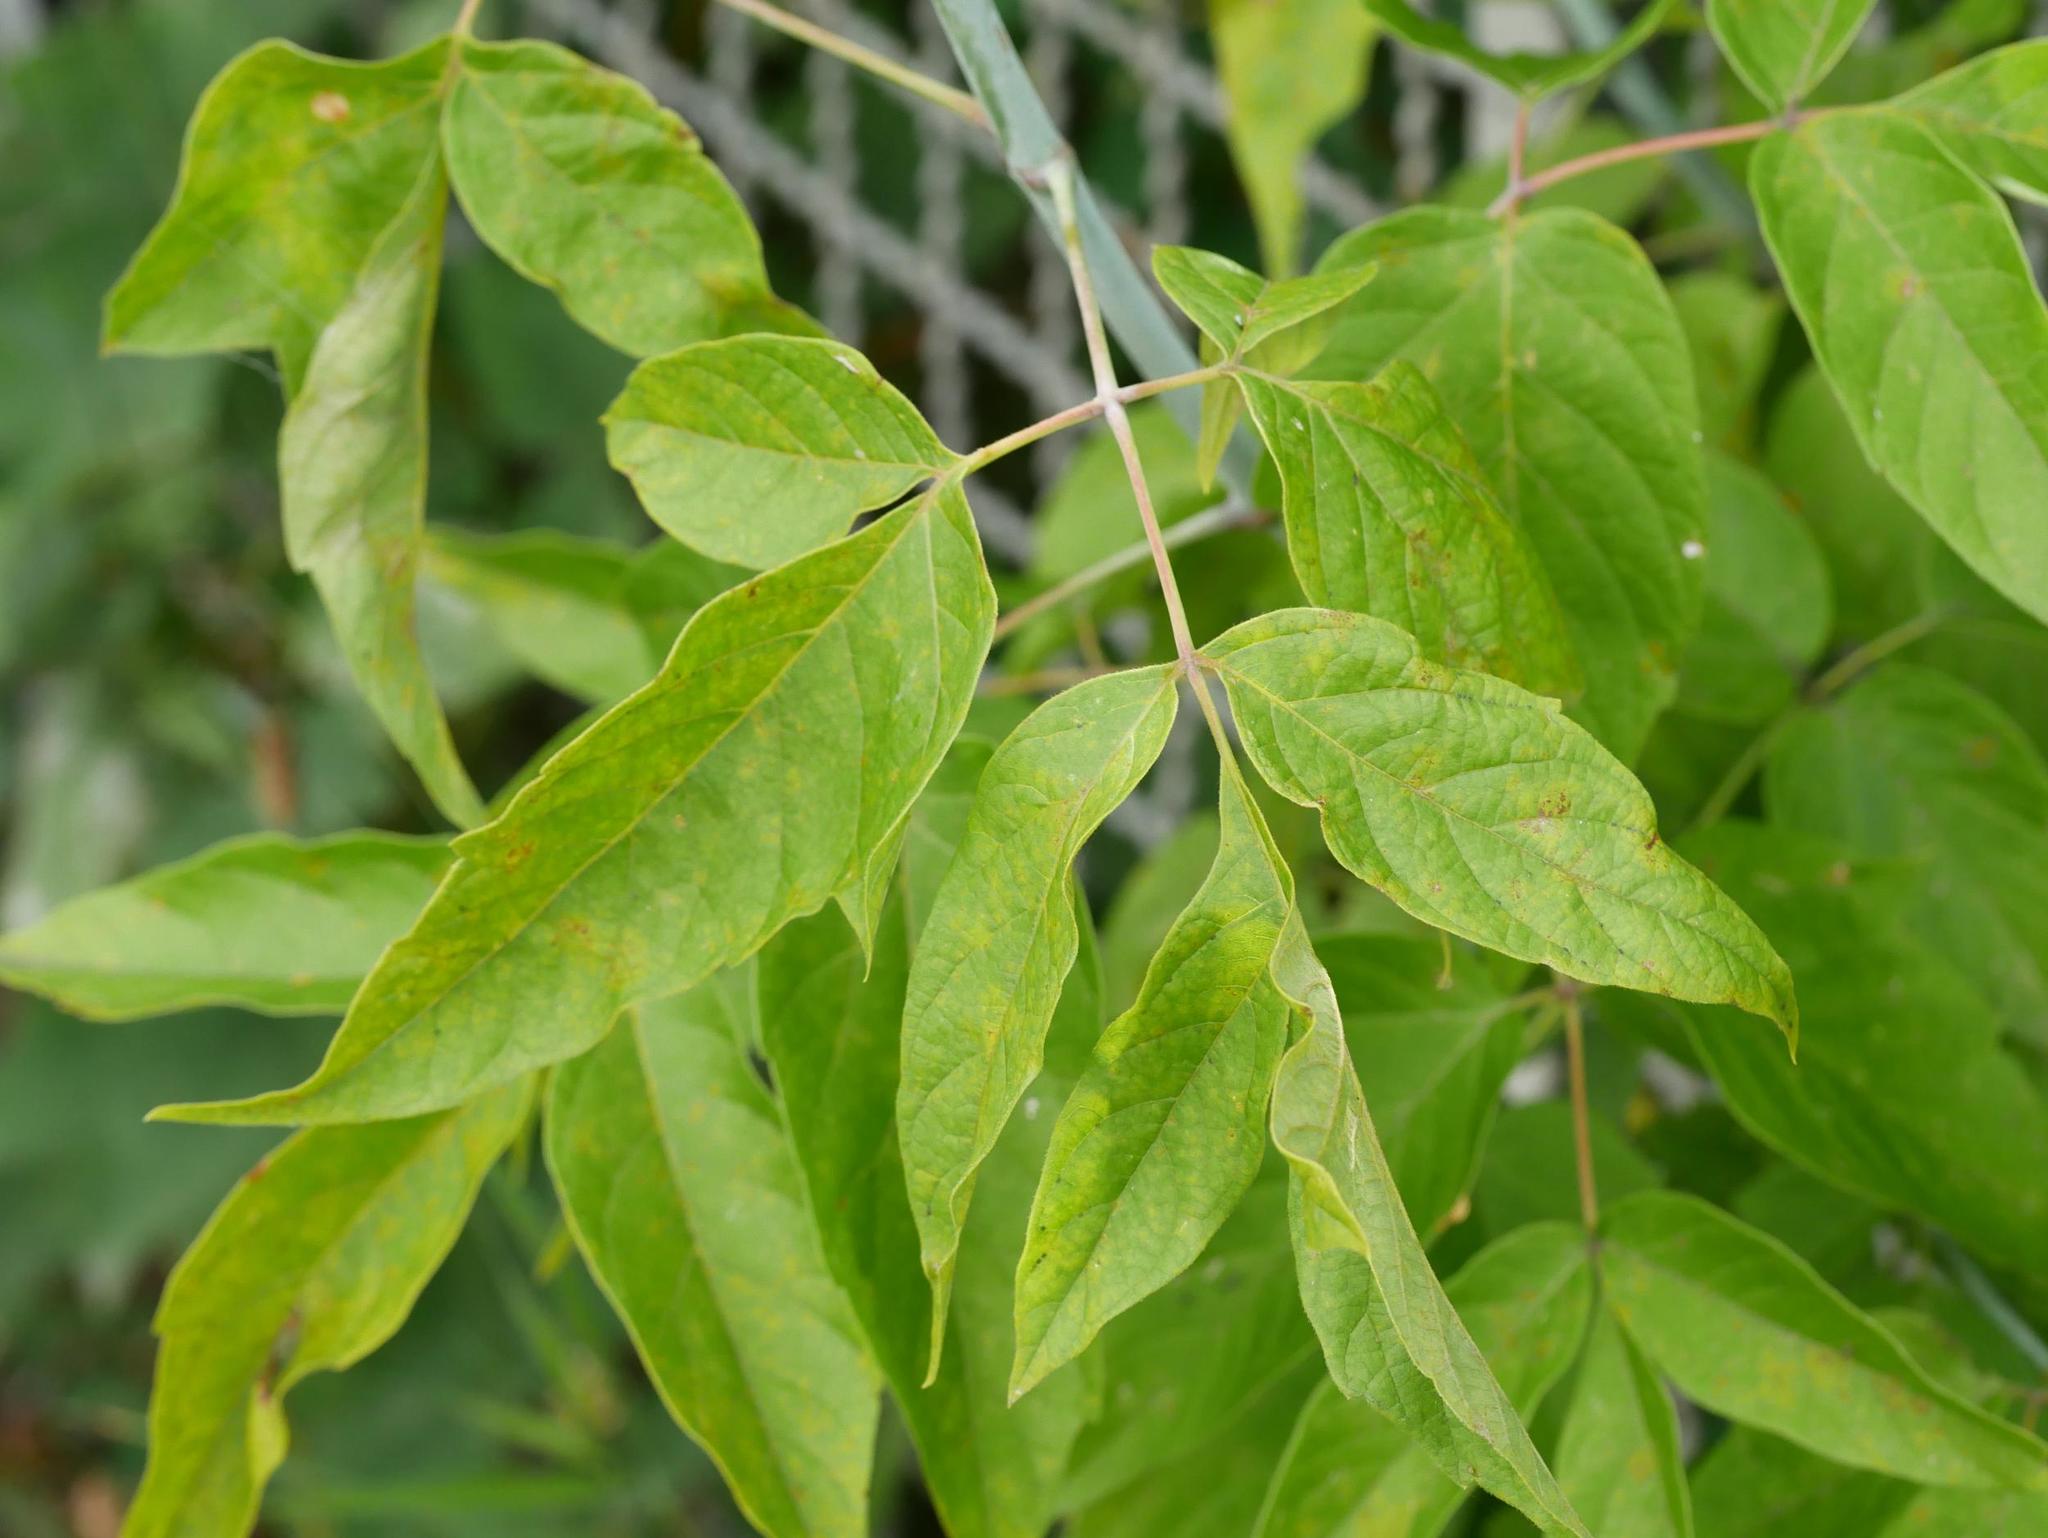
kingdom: Plantae
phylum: Tracheophyta
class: Magnoliopsida
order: Sapindales
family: Sapindaceae
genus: Acer
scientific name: Acer negundo
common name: Ashleaf maple
